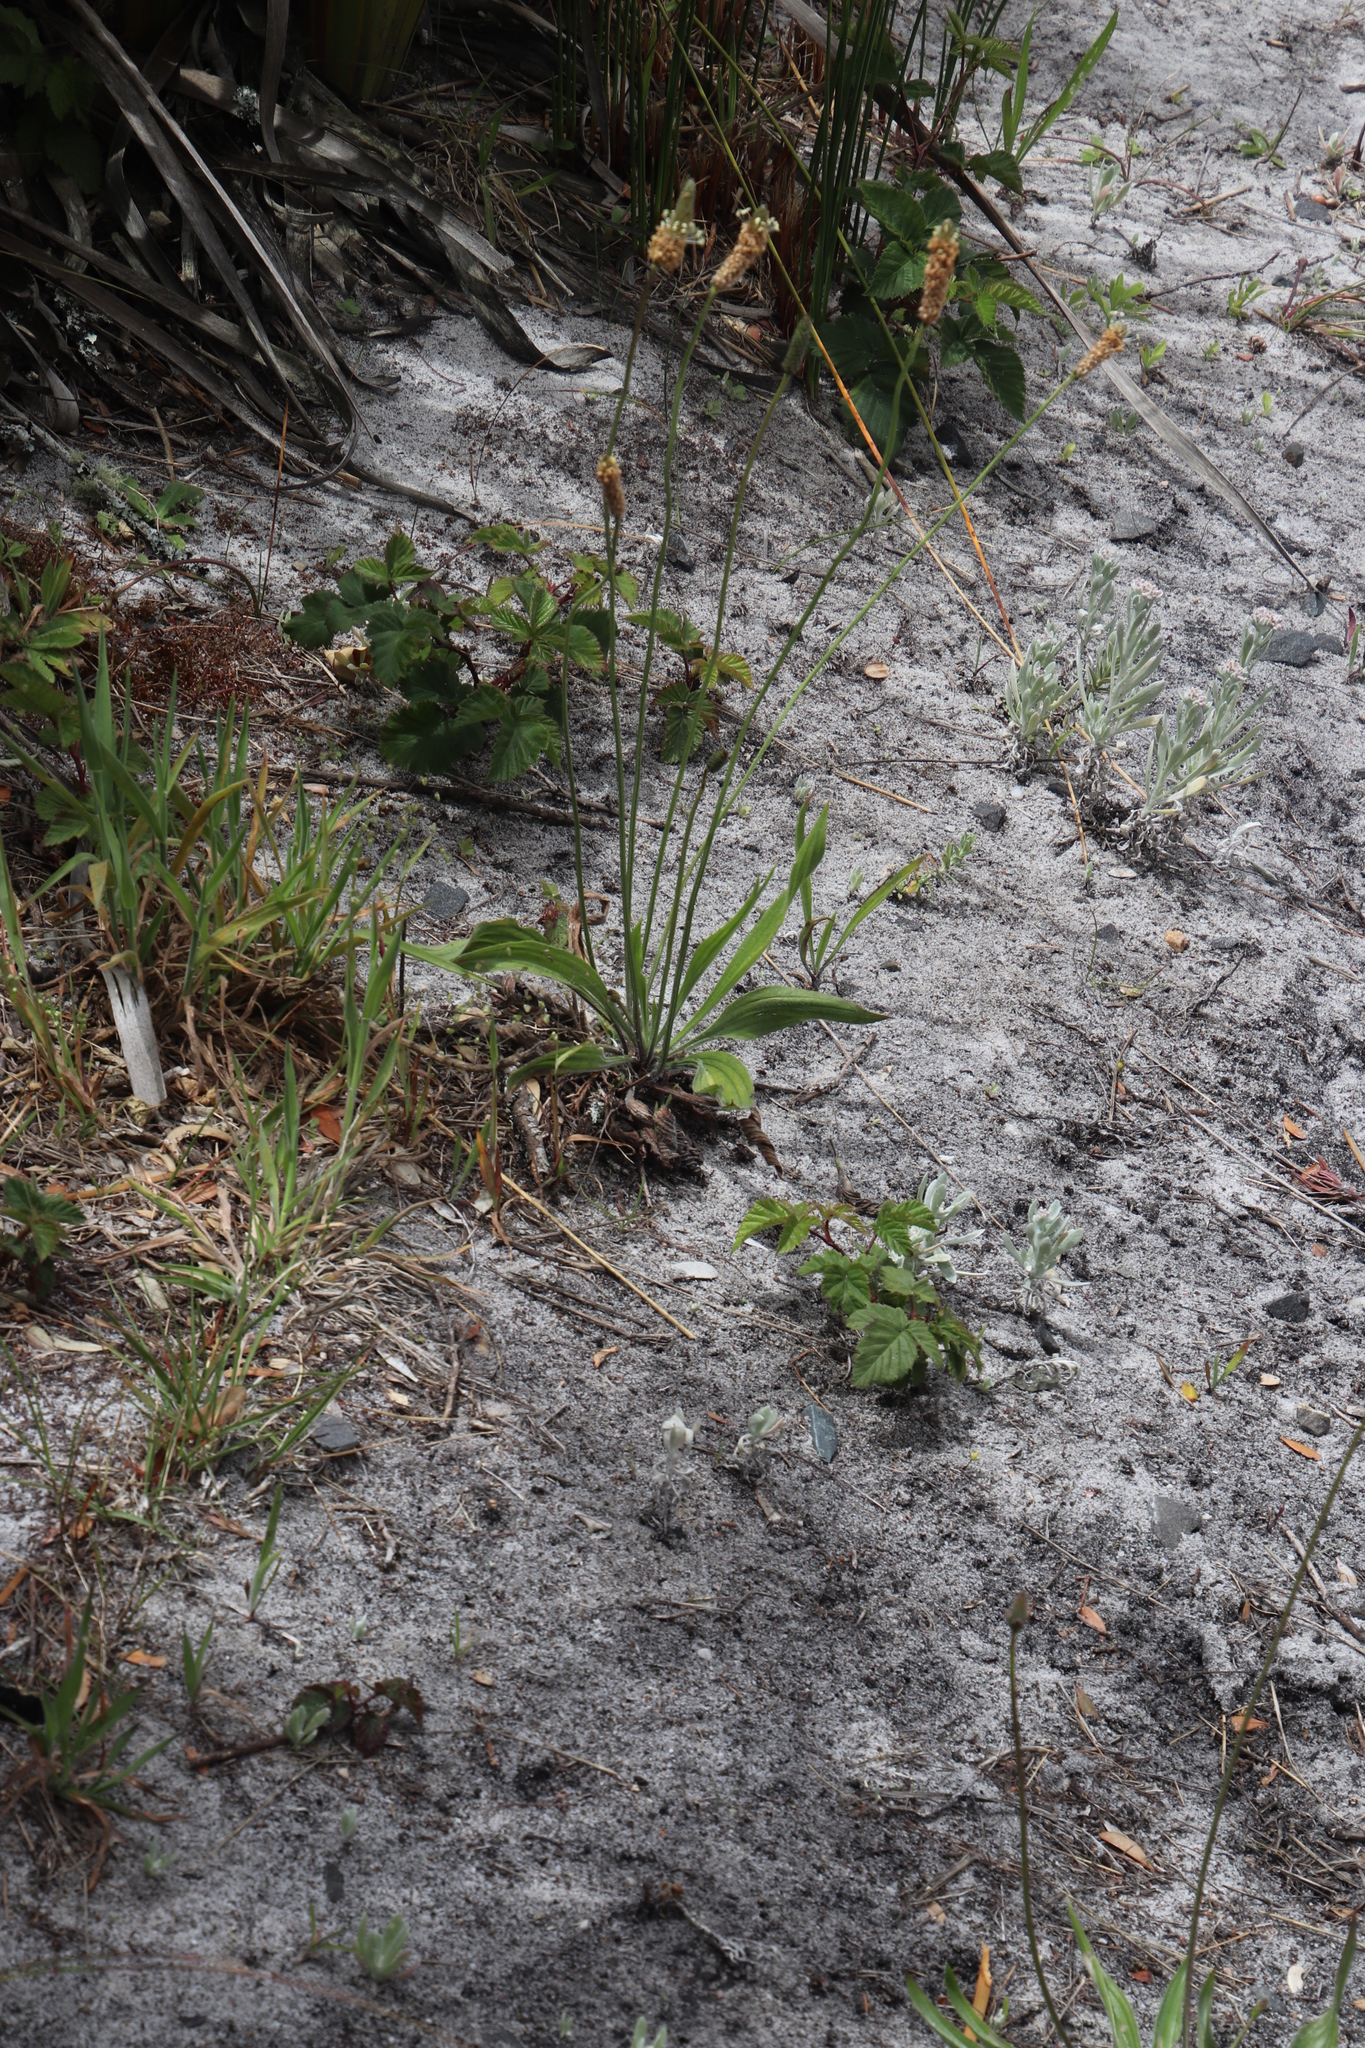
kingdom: Plantae
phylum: Tracheophyta
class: Magnoliopsida
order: Lamiales
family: Plantaginaceae
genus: Plantago
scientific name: Plantago lanceolata
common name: Ribwort plantain
